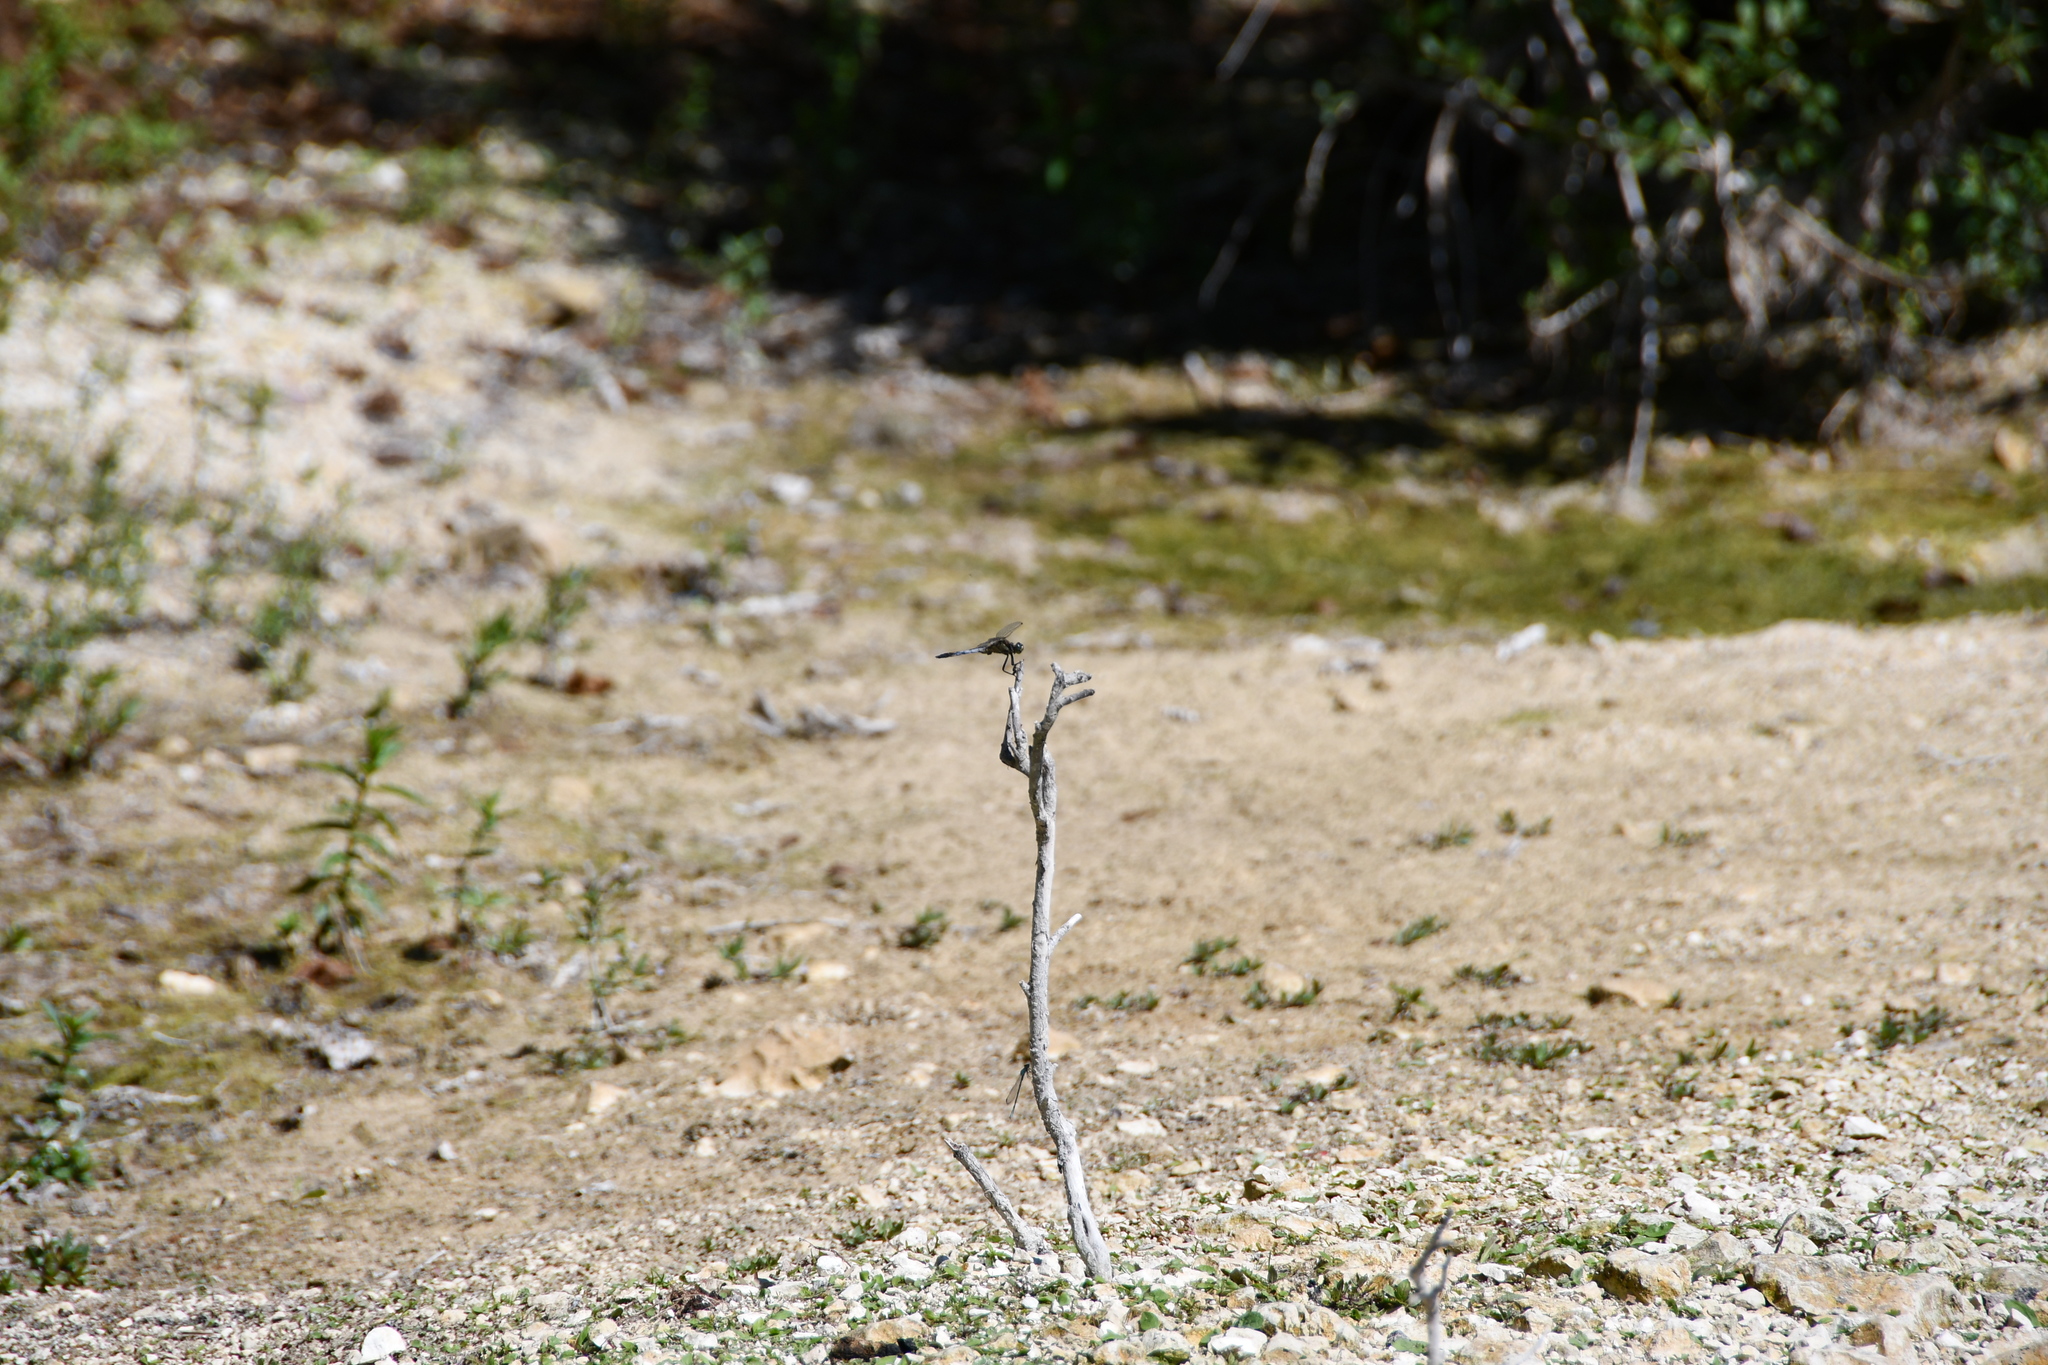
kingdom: Animalia
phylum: Arthropoda
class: Insecta
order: Odonata
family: Libellulidae
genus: Orthetrum
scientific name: Orthetrum cancellatum
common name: Black-tailed skimmer
